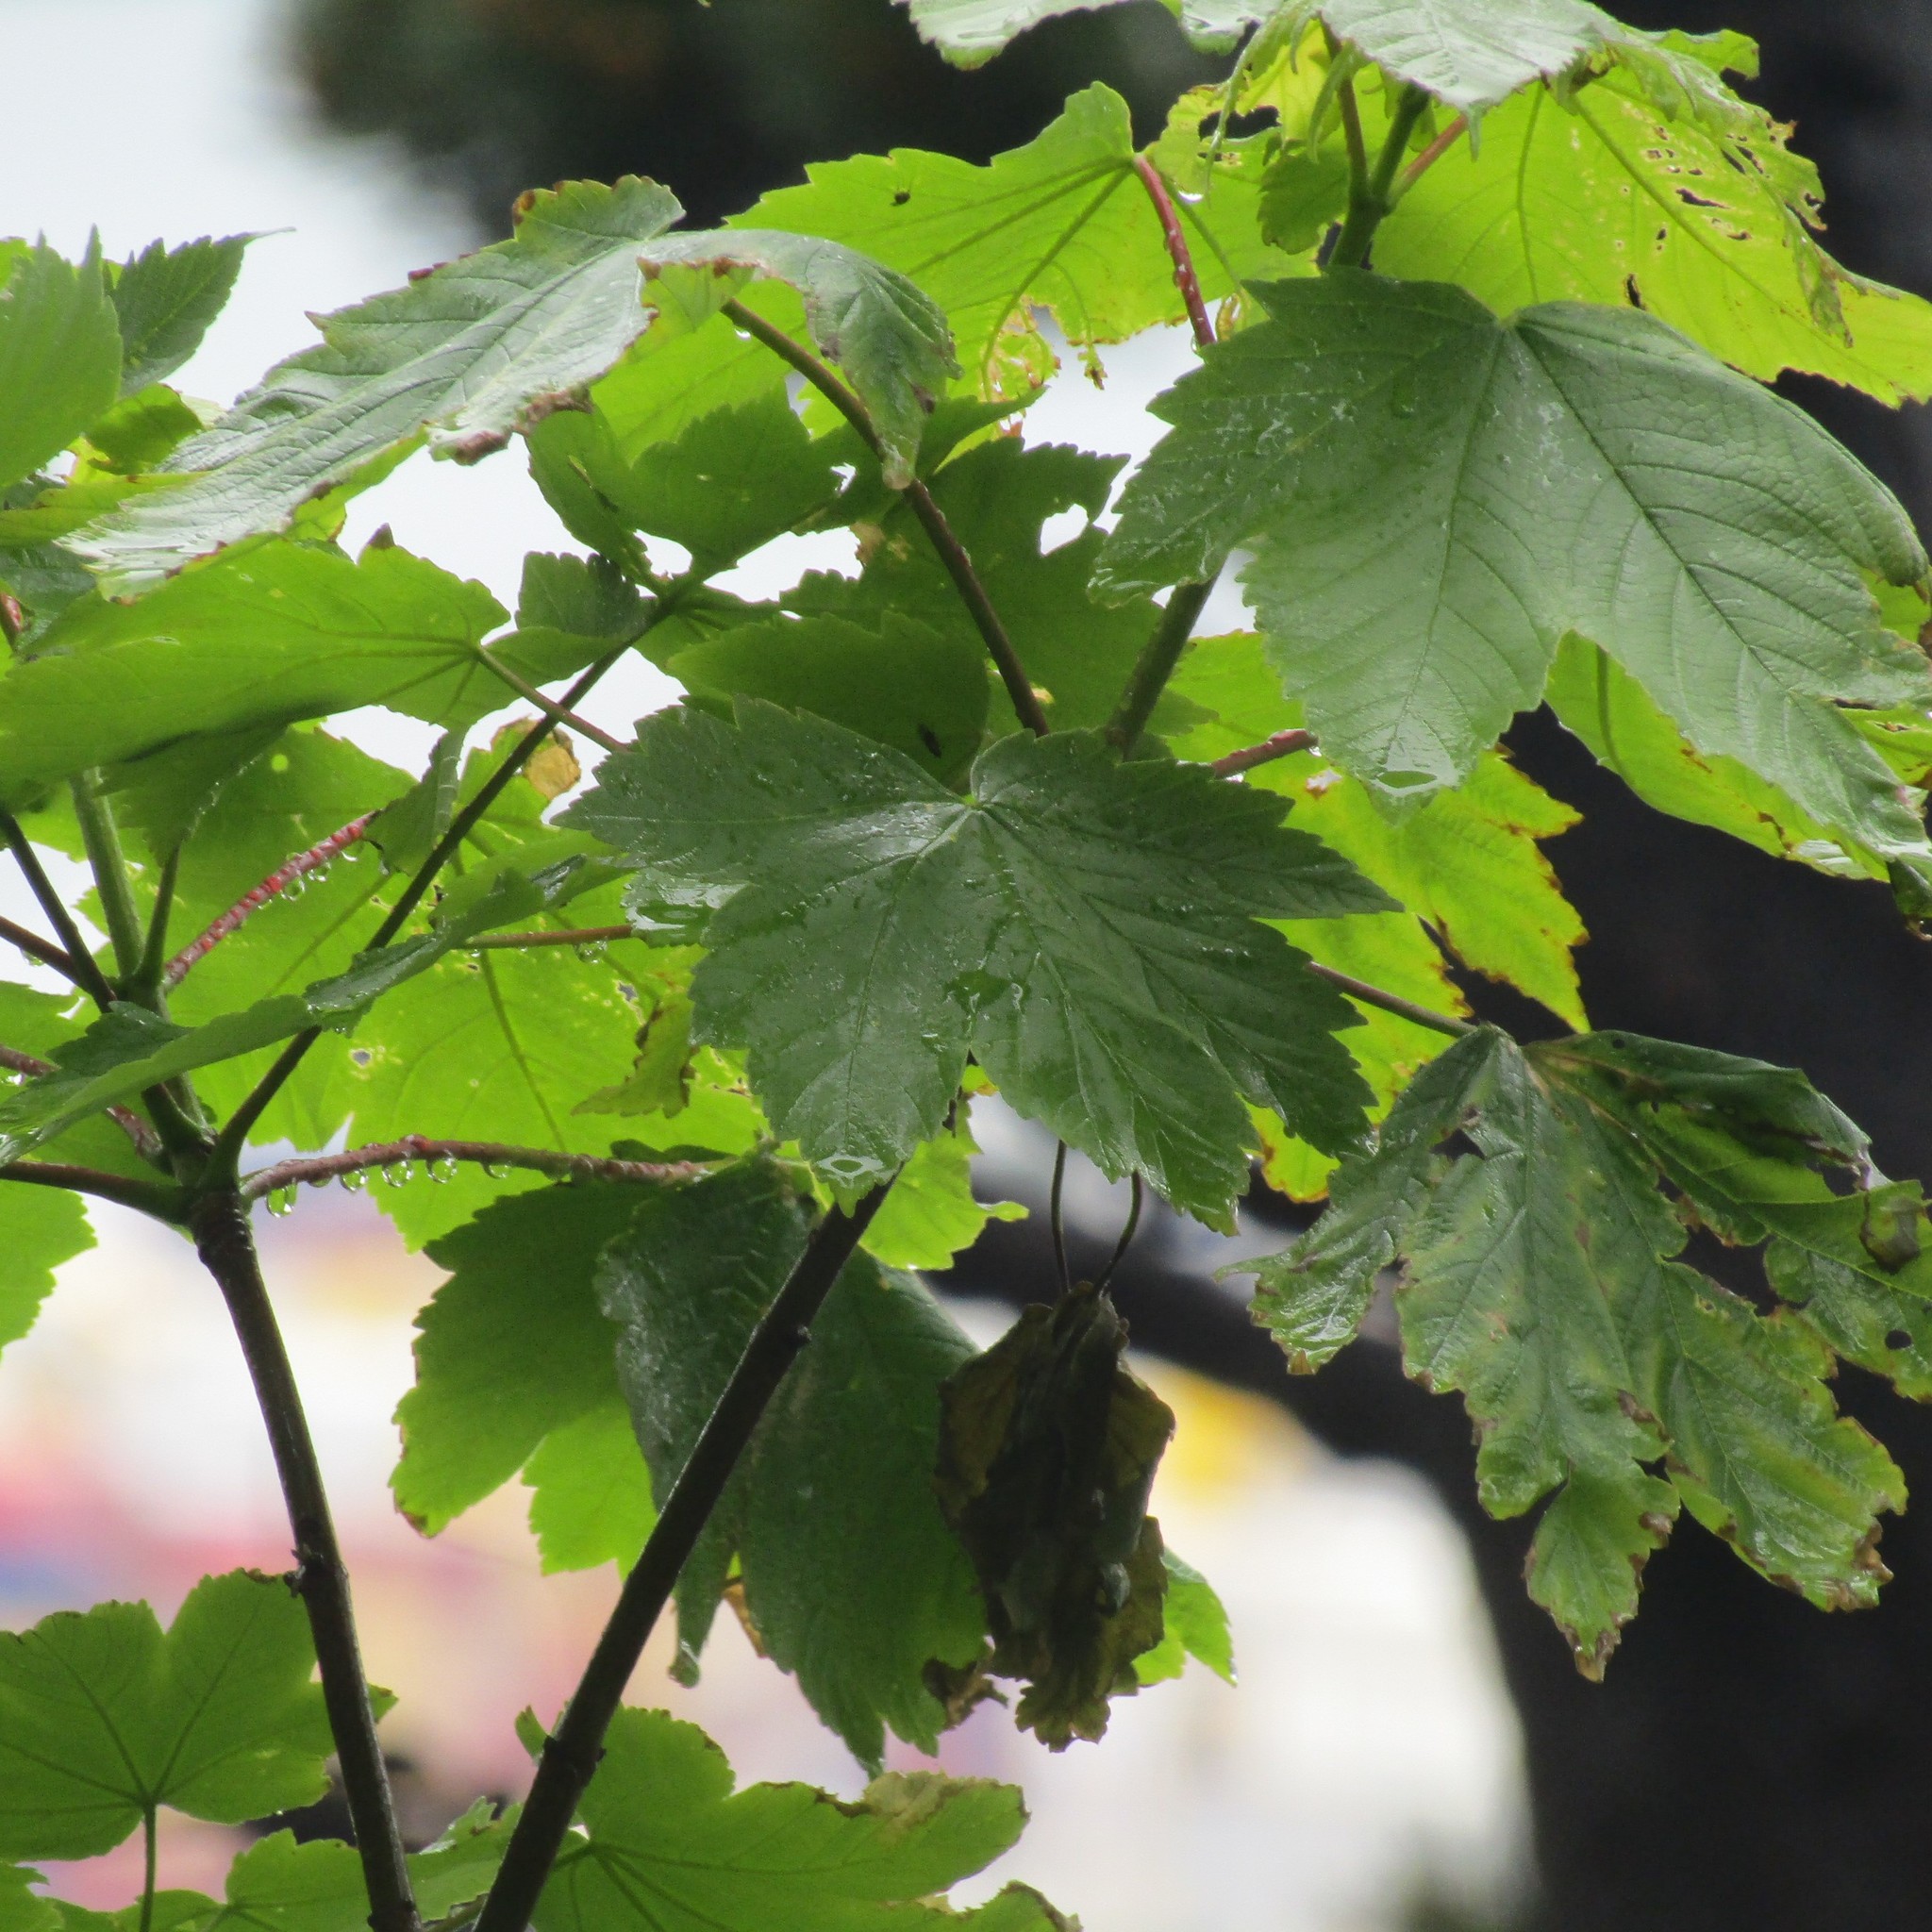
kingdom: Plantae
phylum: Tracheophyta
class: Magnoliopsida
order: Sapindales
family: Sapindaceae
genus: Acer
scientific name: Acer pseudoplatanus
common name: Sycamore
